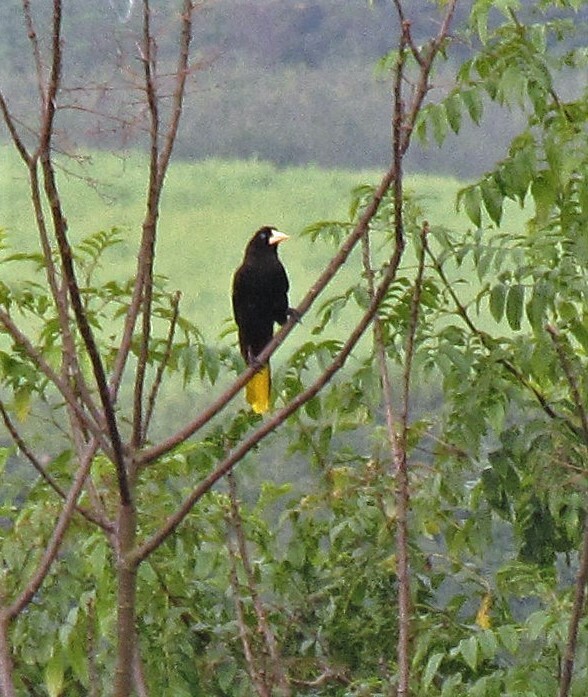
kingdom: Animalia
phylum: Chordata
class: Aves
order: Passeriformes
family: Icteridae
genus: Psarocolius
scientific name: Psarocolius decumanus
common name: Crested oropendola
